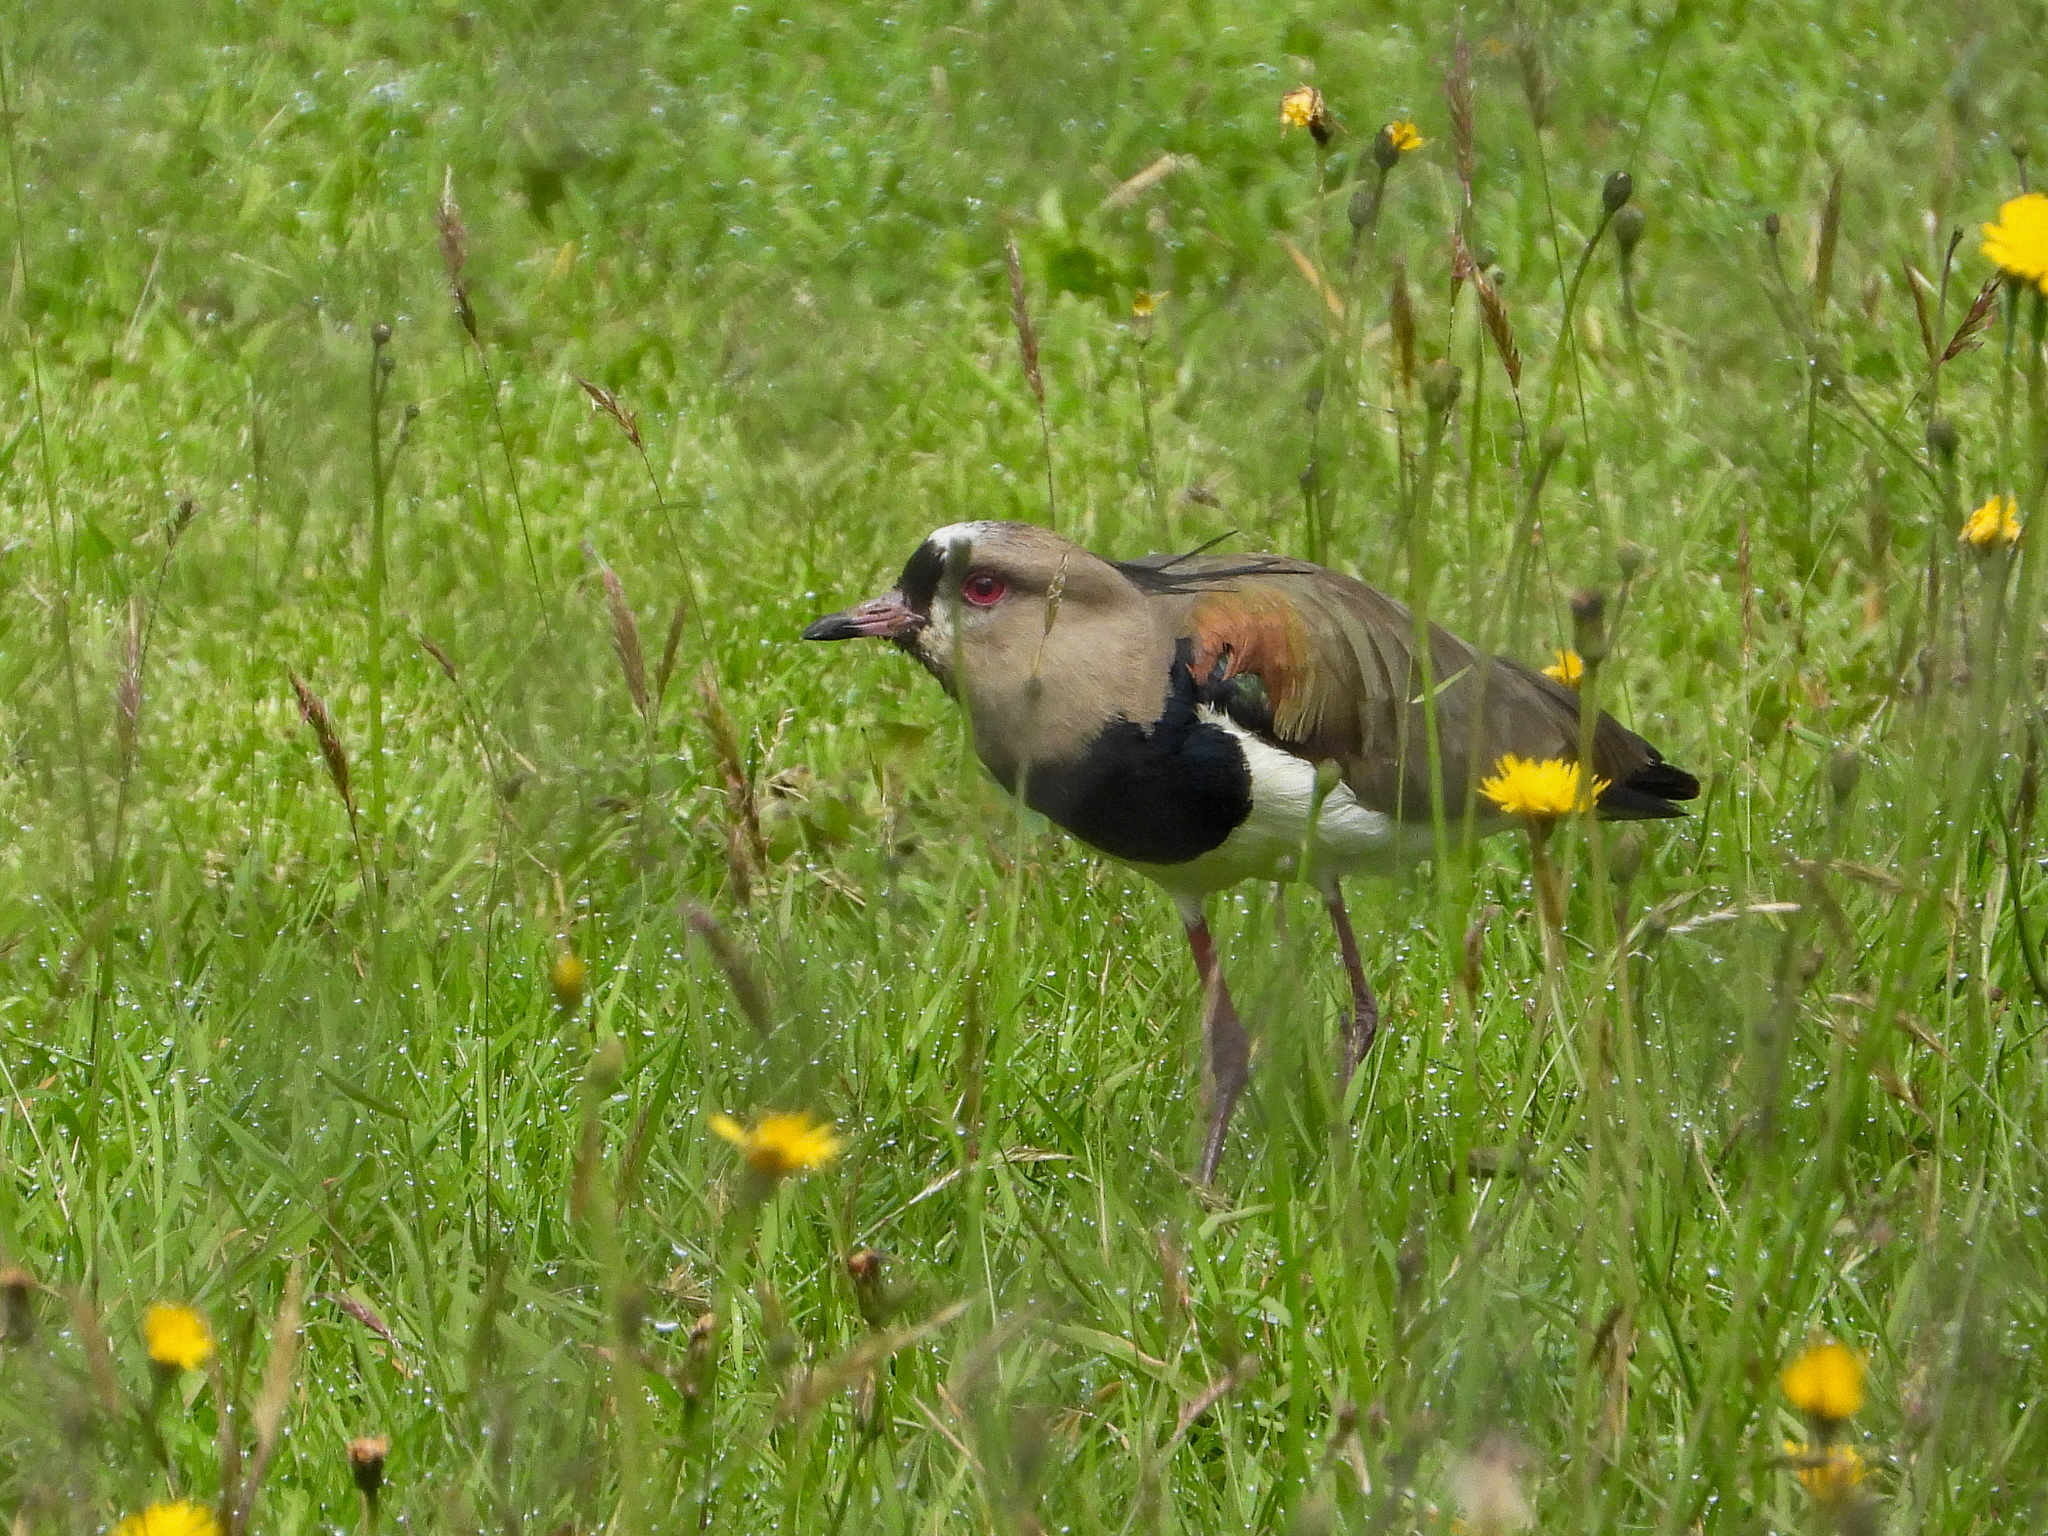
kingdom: Animalia
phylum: Chordata
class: Aves
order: Charadriiformes
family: Charadriidae
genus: Vanellus
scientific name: Vanellus chilensis
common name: Southern lapwing
